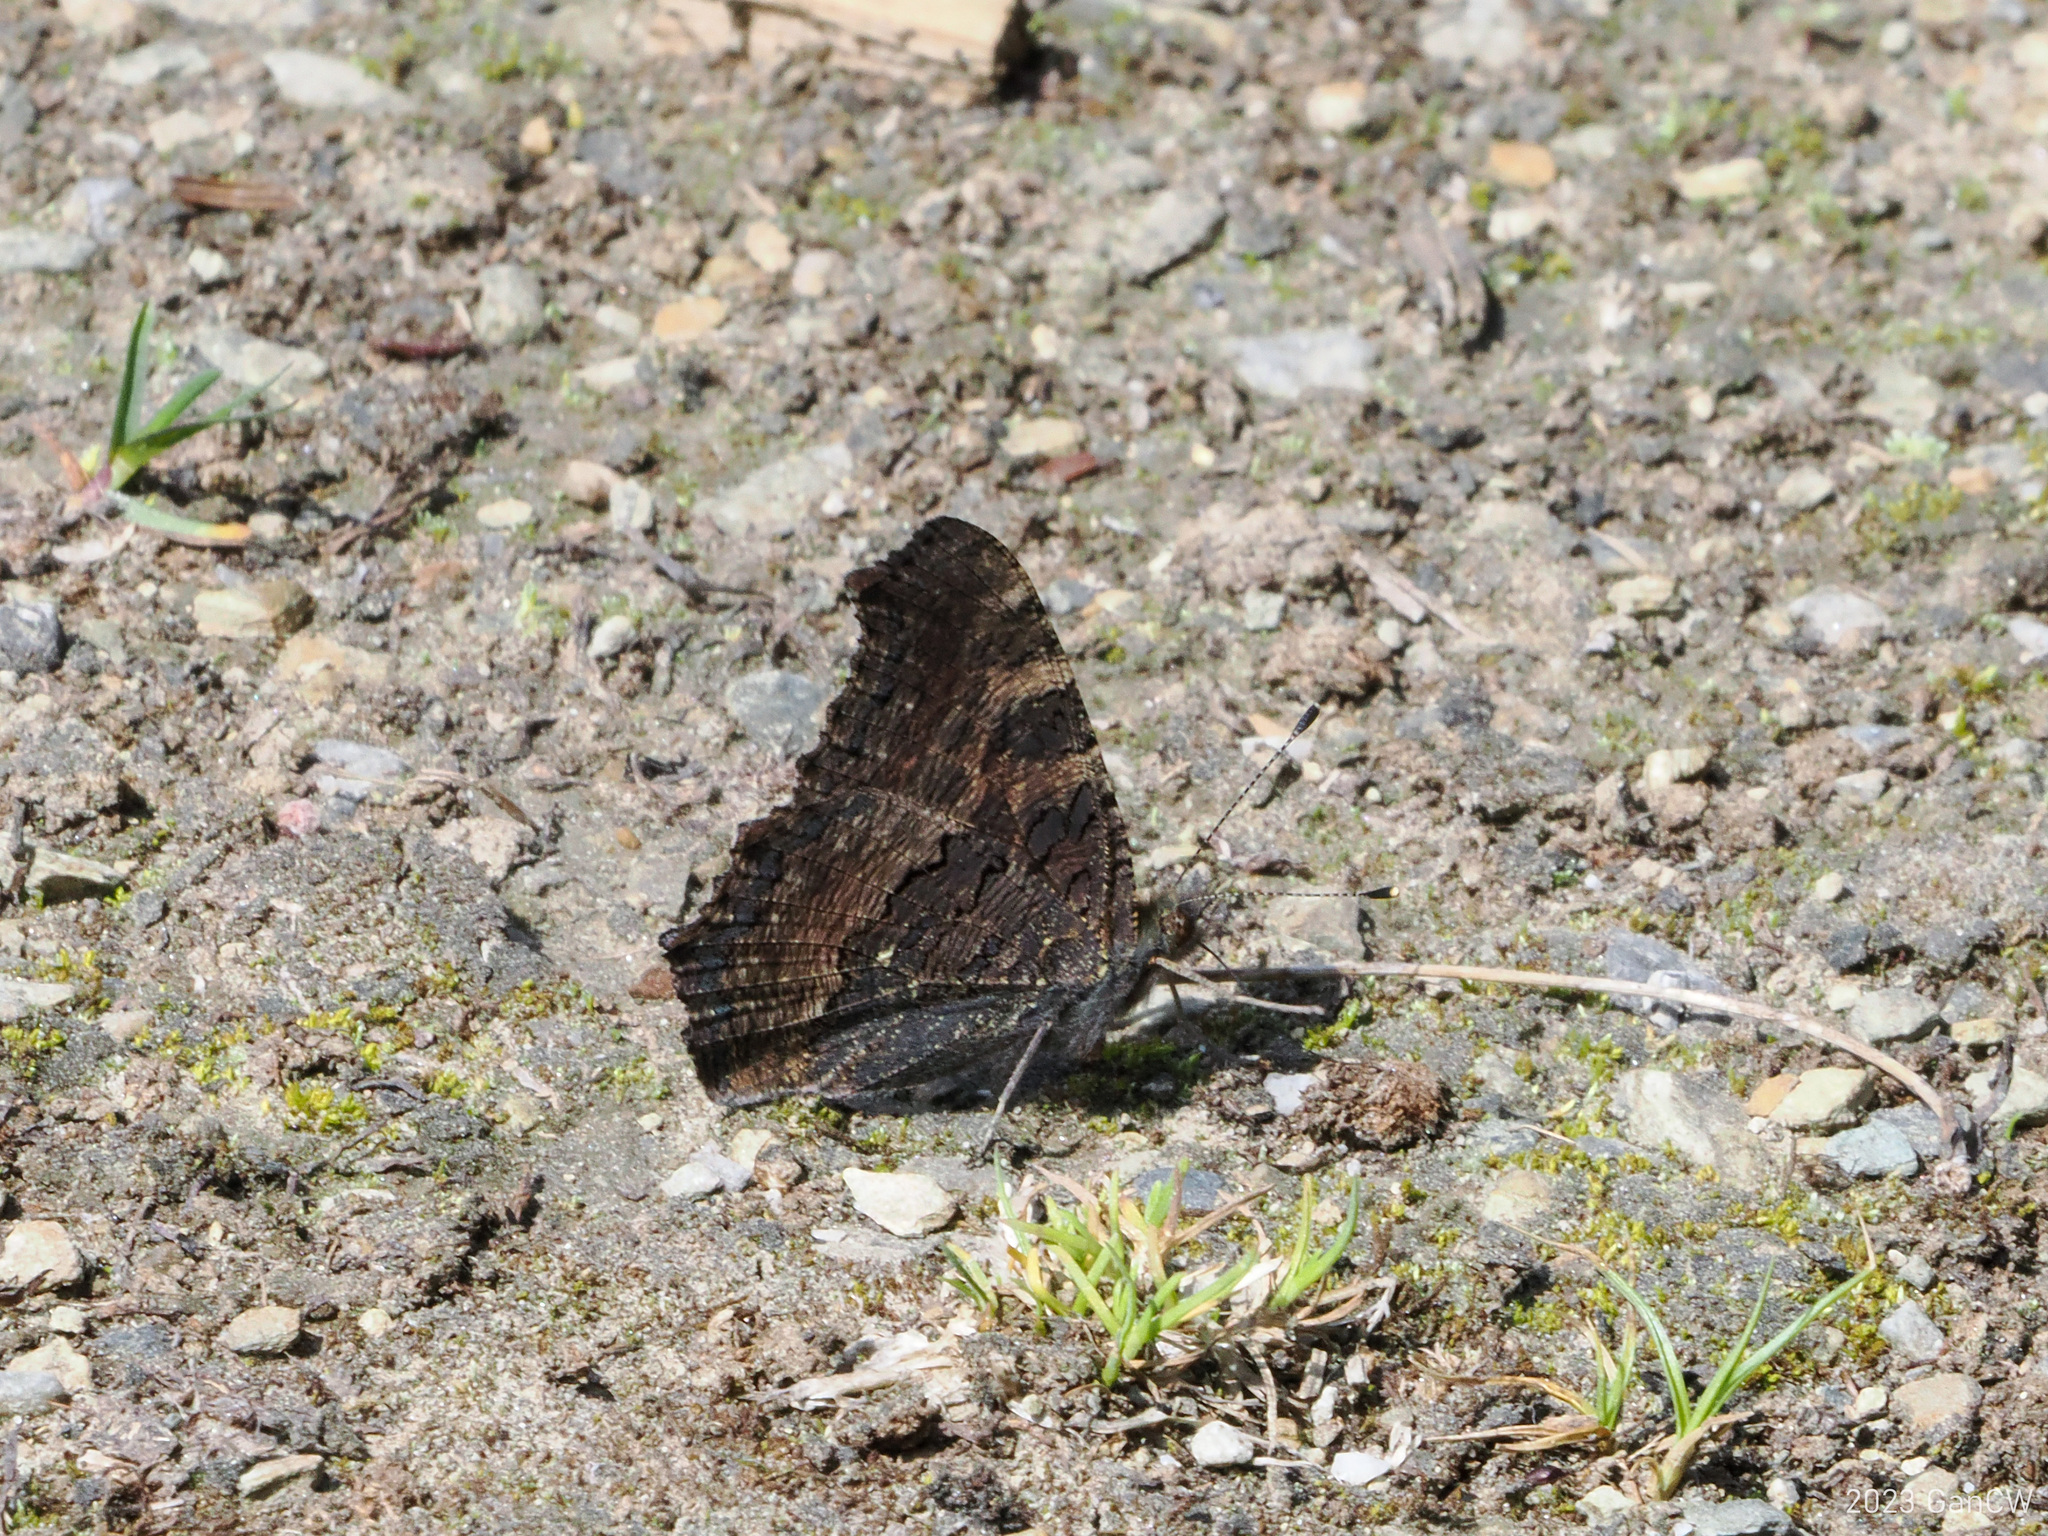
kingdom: Animalia
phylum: Arthropoda
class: Insecta
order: Lepidoptera
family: Nymphalidae
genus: Aglais
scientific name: Aglais caschmirensis
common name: Indian tortoiseshell
